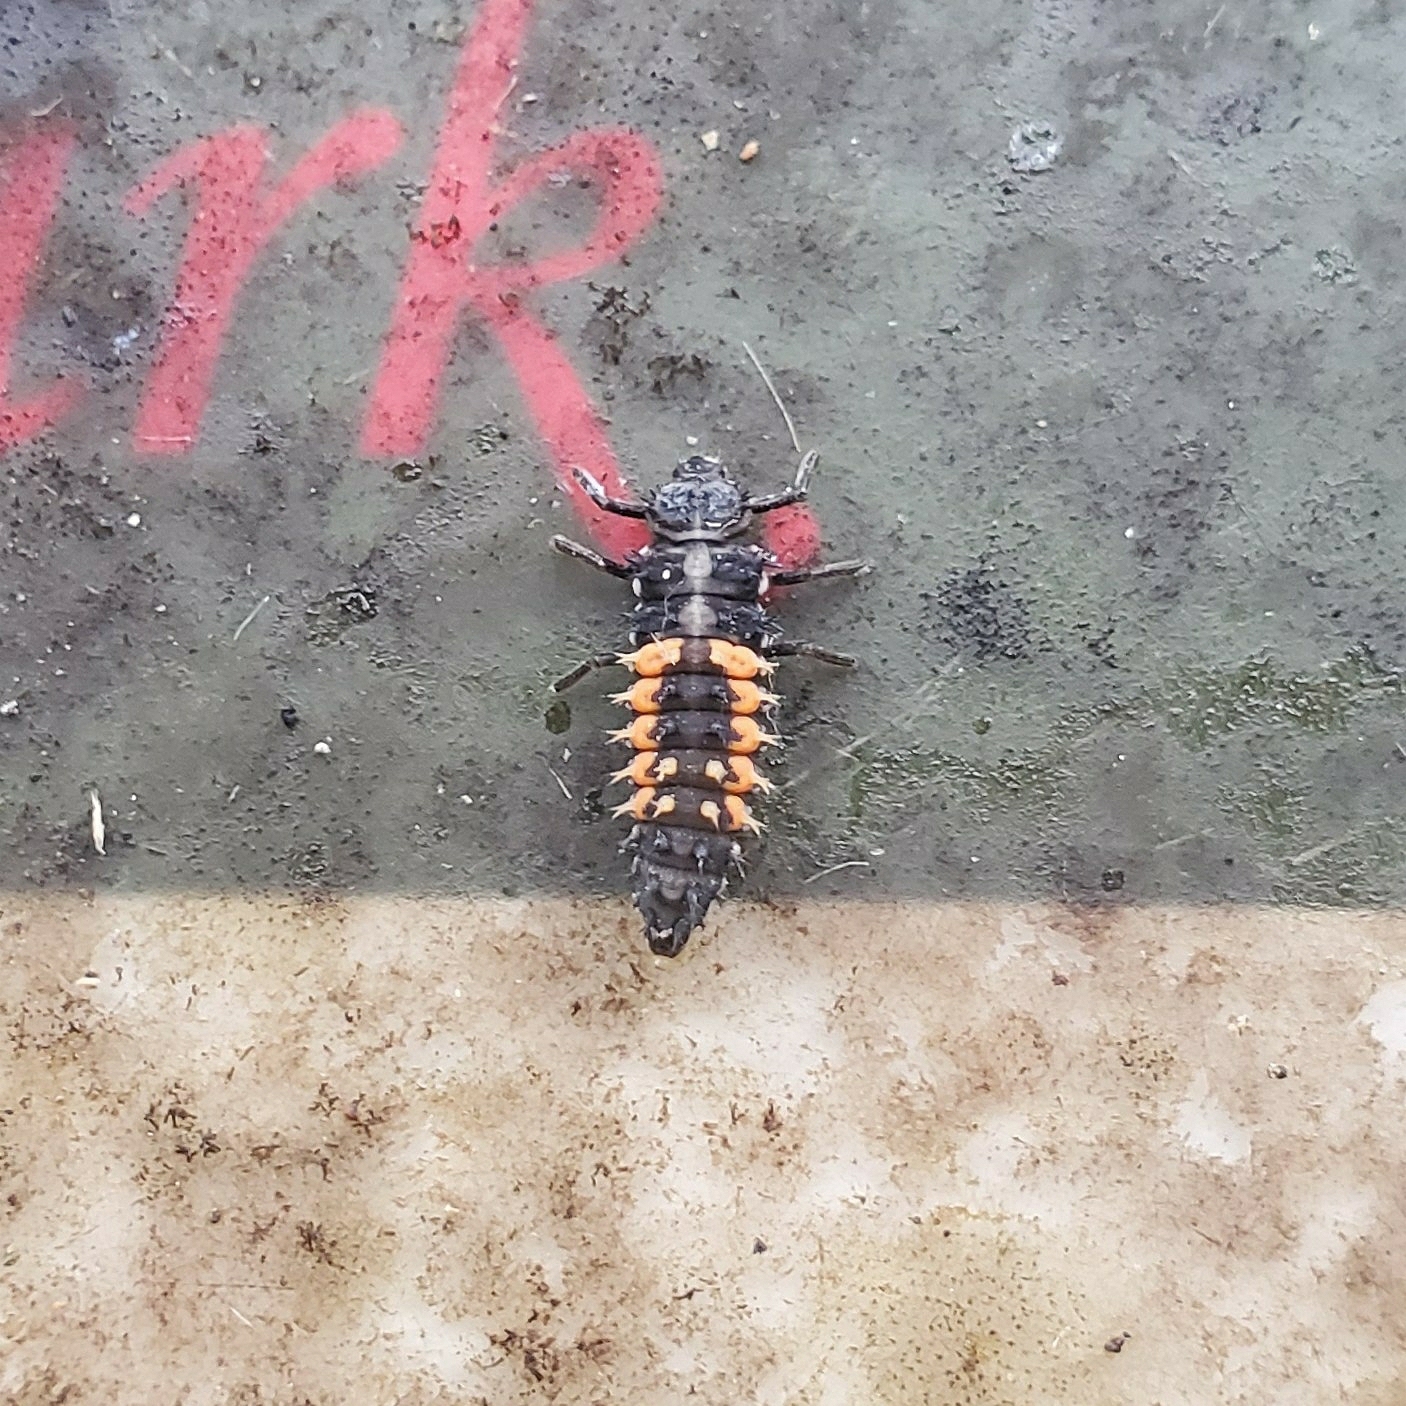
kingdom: Animalia
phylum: Arthropoda
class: Insecta
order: Coleoptera
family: Coccinellidae
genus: Harmonia
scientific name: Harmonia axyridis
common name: Harlequin ladybird
